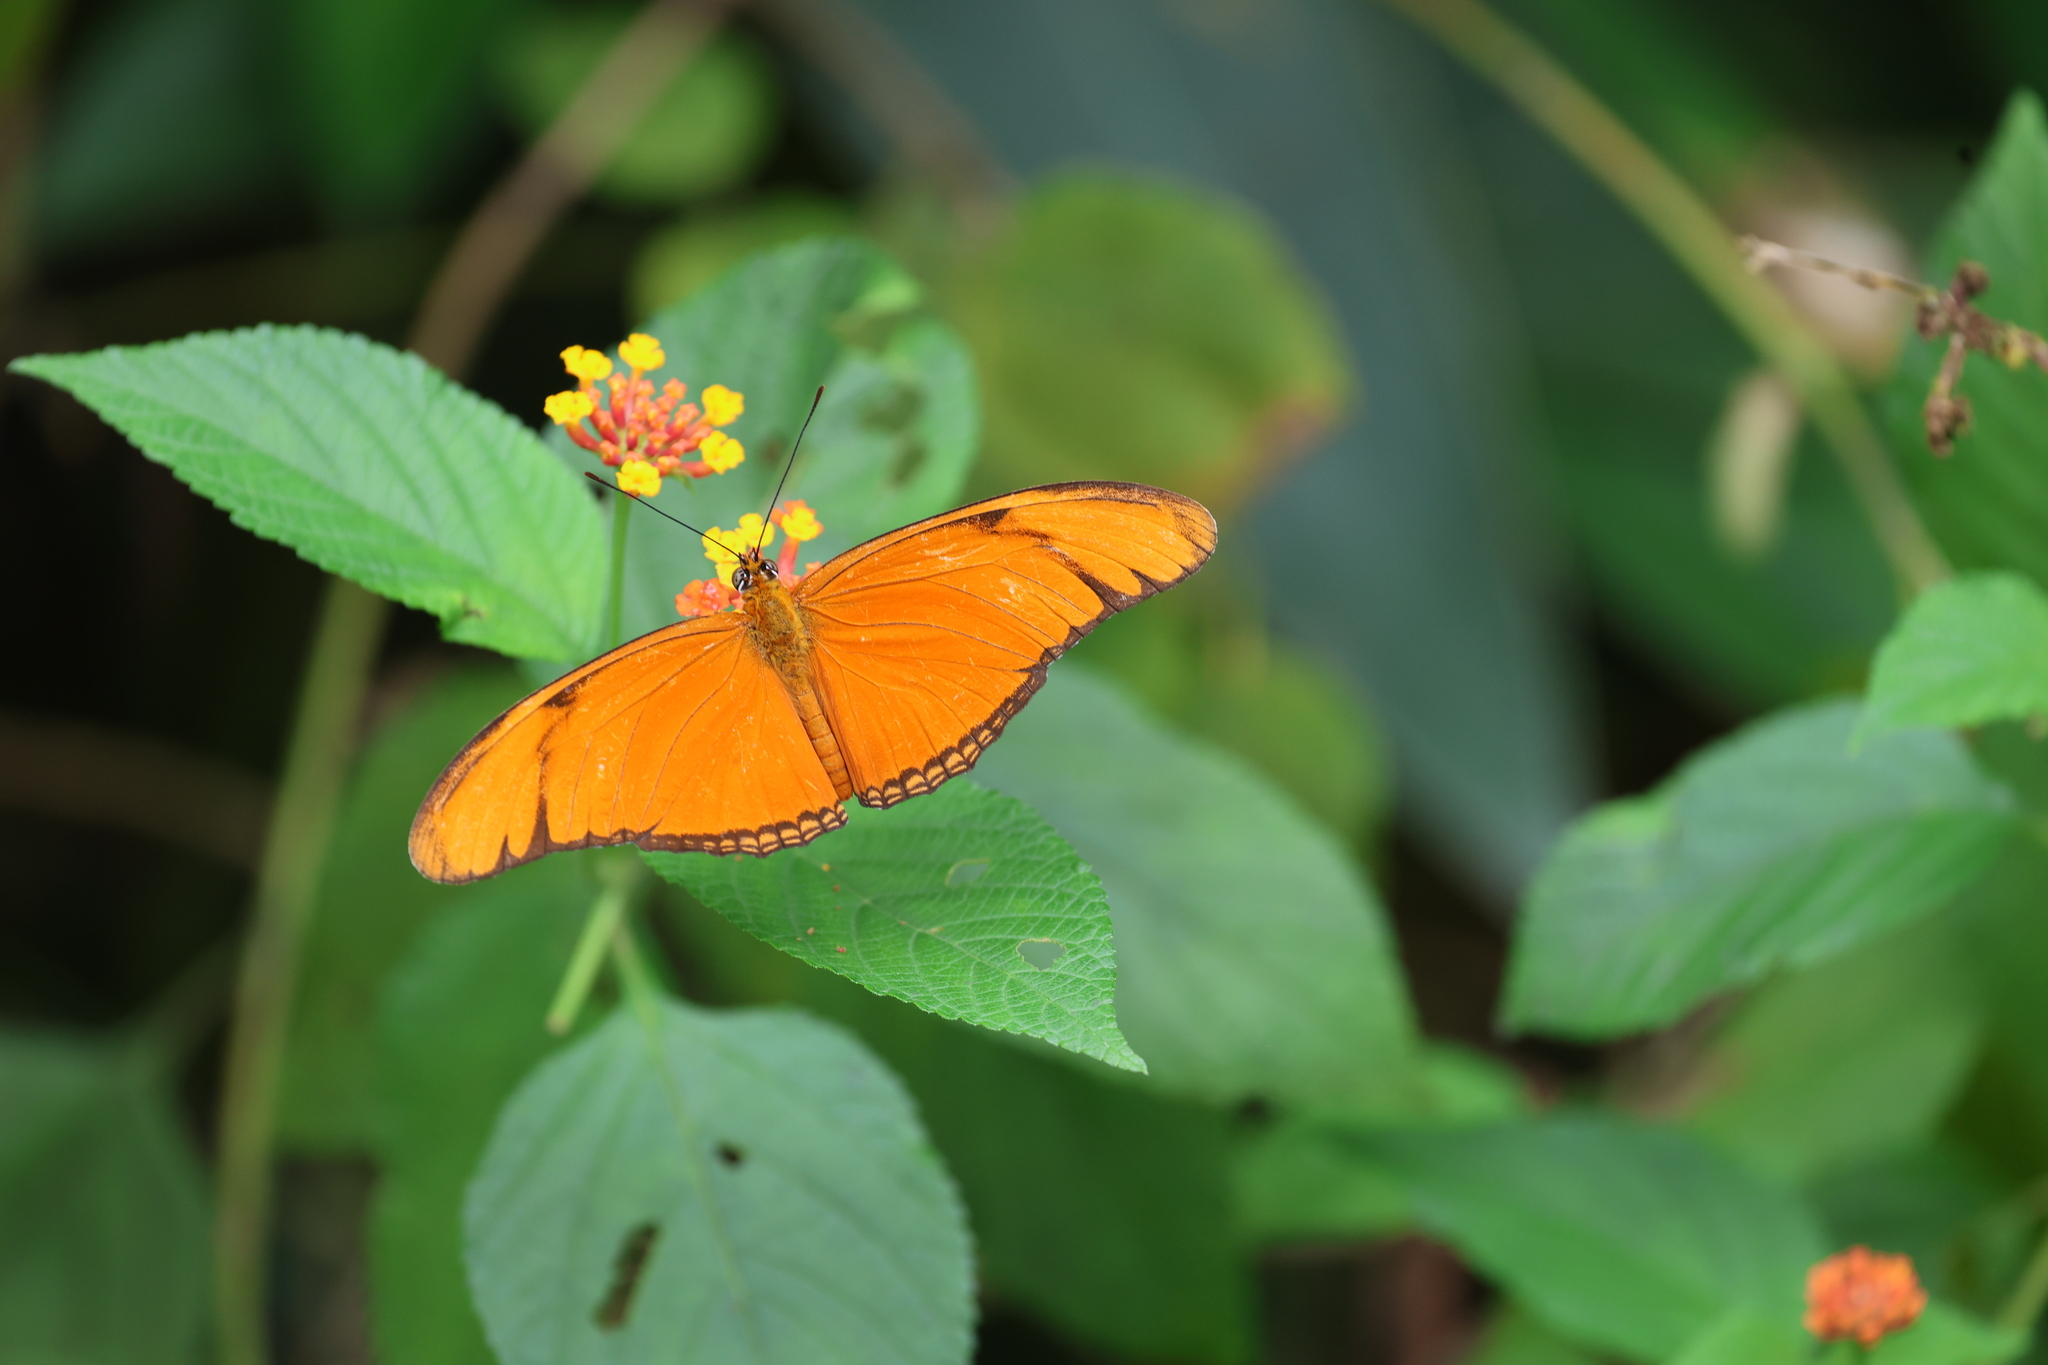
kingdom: Animalia
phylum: Arthropoda
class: Insecta
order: Lepidoptera
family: Nymphalidae
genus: Dryas
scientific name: Dryas iulia
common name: Flambeau
